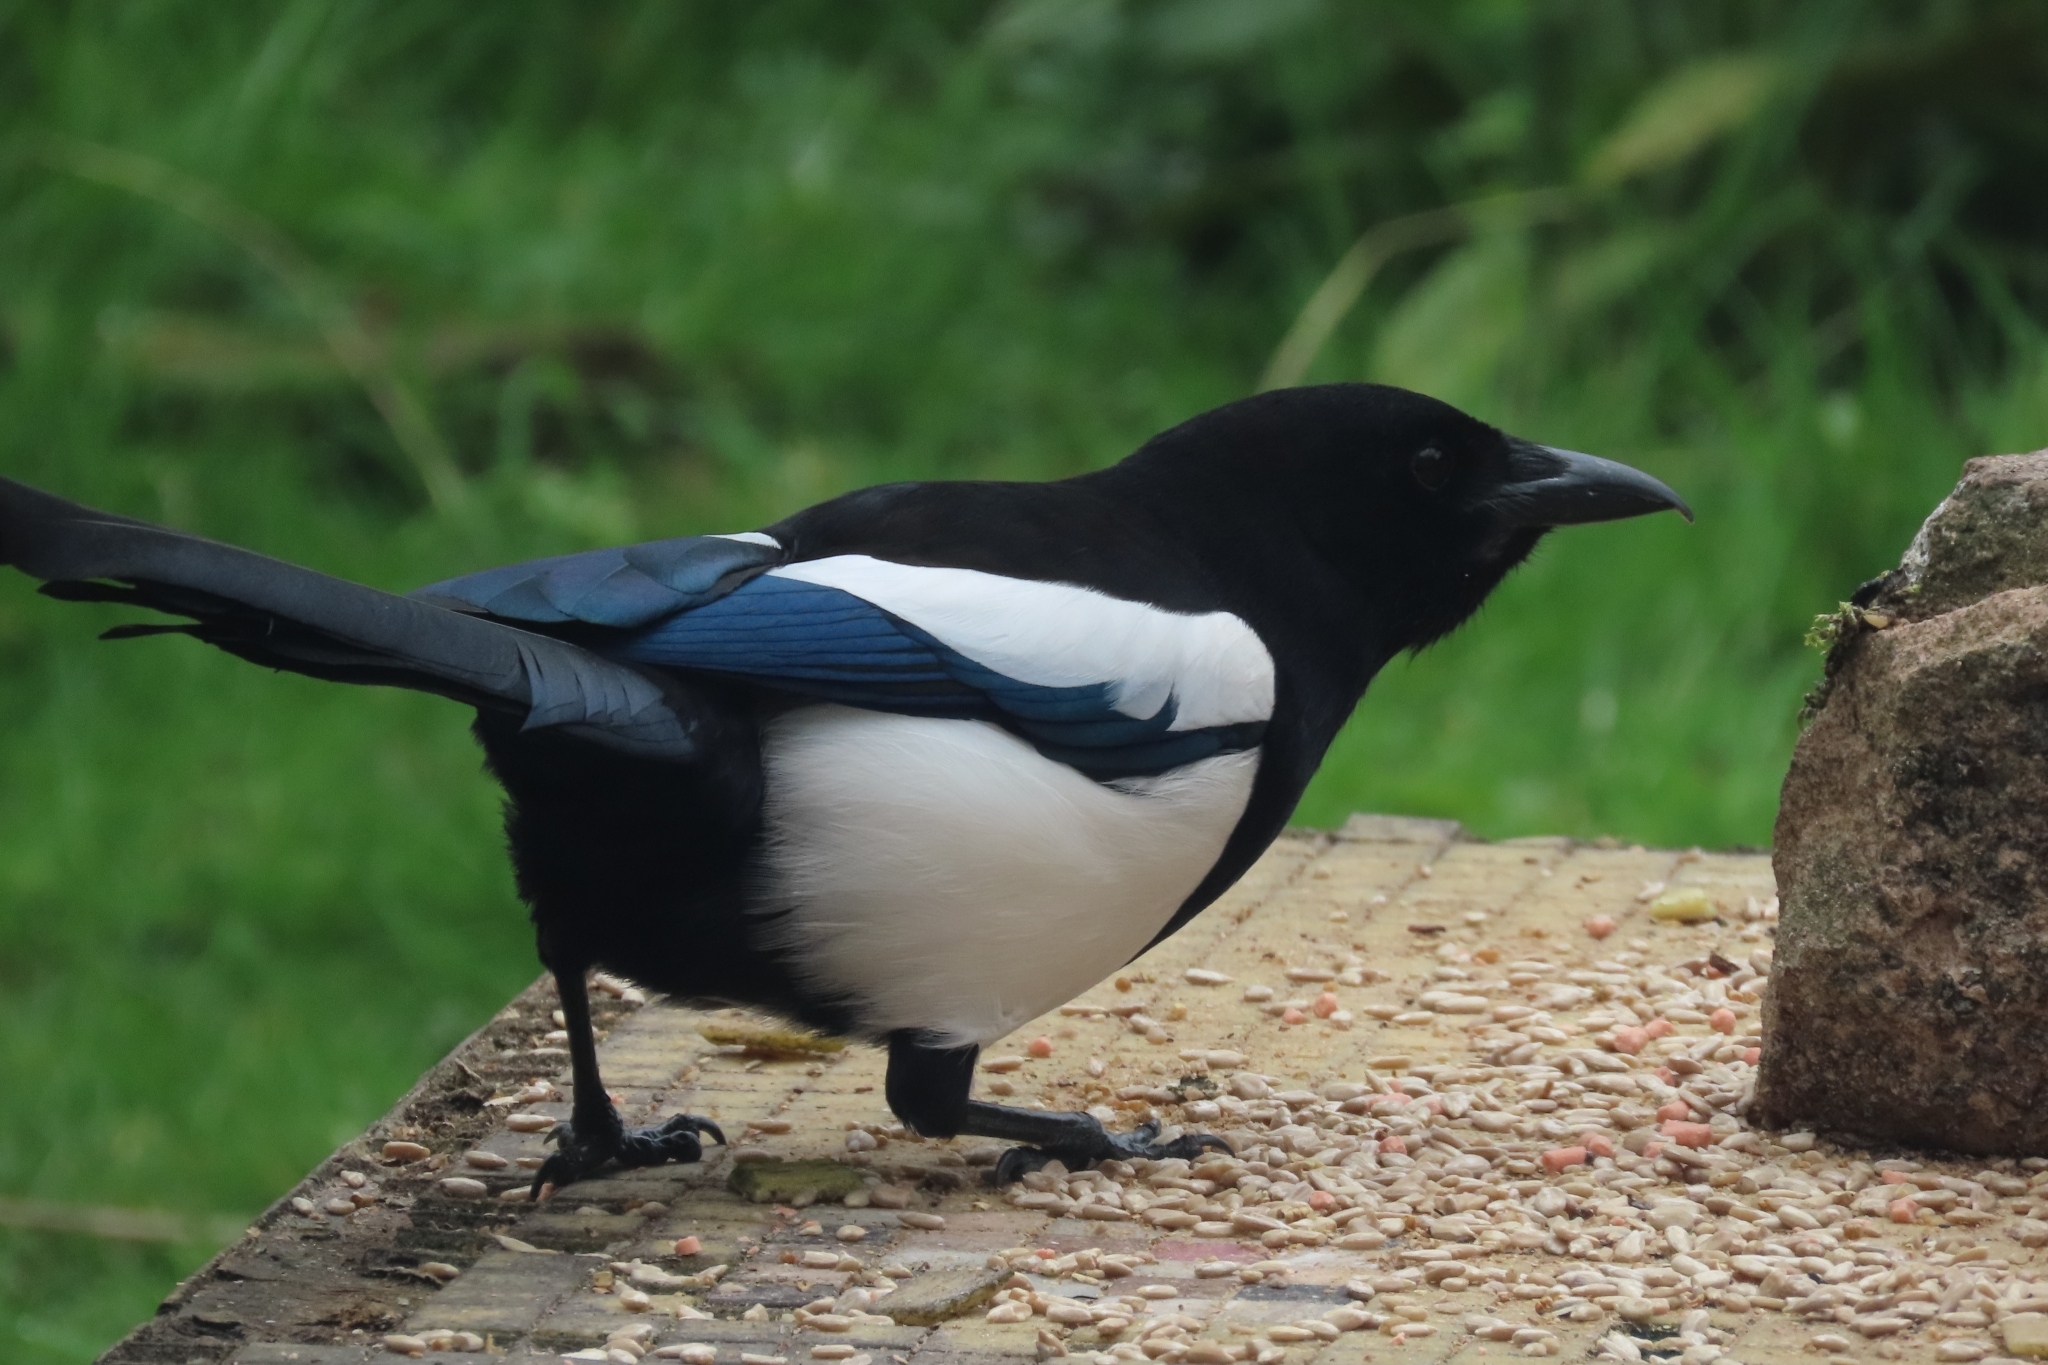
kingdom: Animalia
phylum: Chordata
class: Aves
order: Passeriformes
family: Corvidae
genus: Pica
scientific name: Pica pica
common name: Eurasian magpie
